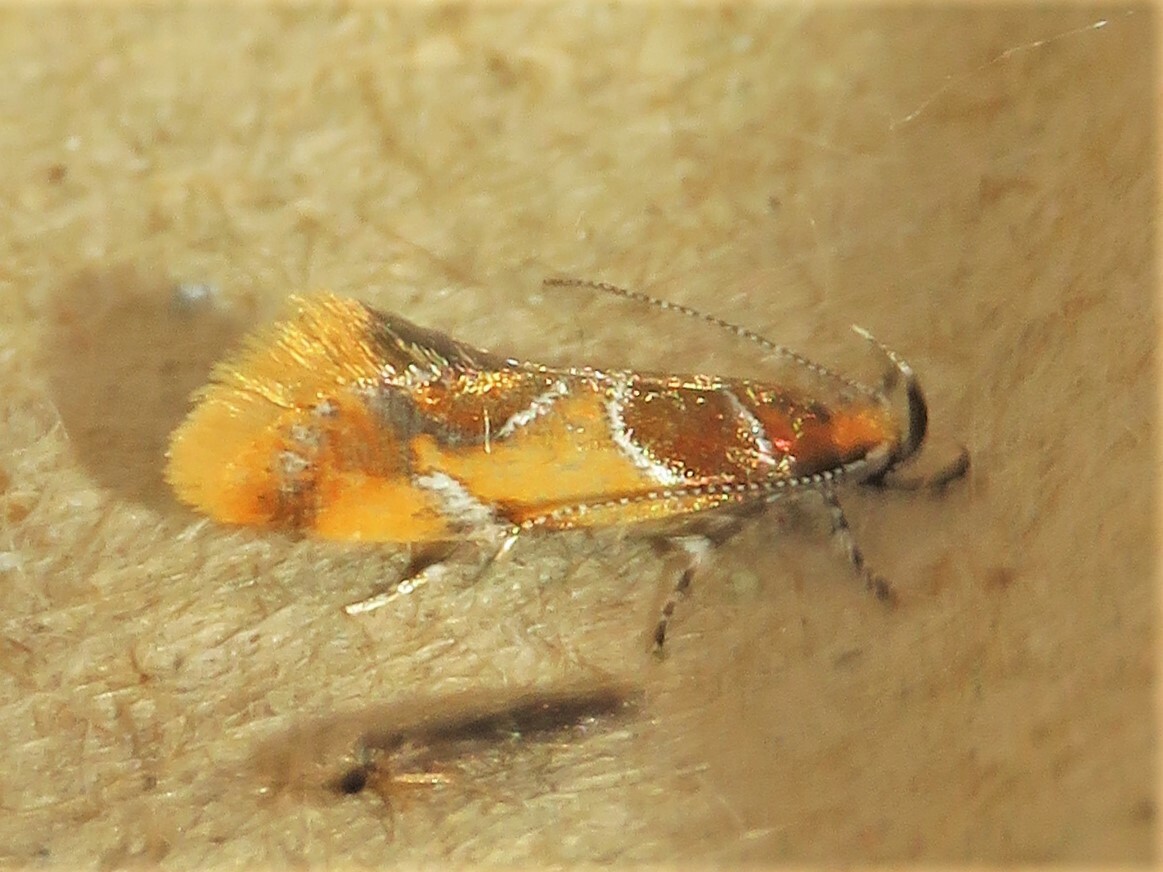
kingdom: Animalia
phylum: Arthropoda
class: Insecta
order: Lepidoptera
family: Oecophoridae
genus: Callima
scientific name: Callima argenticinctella
